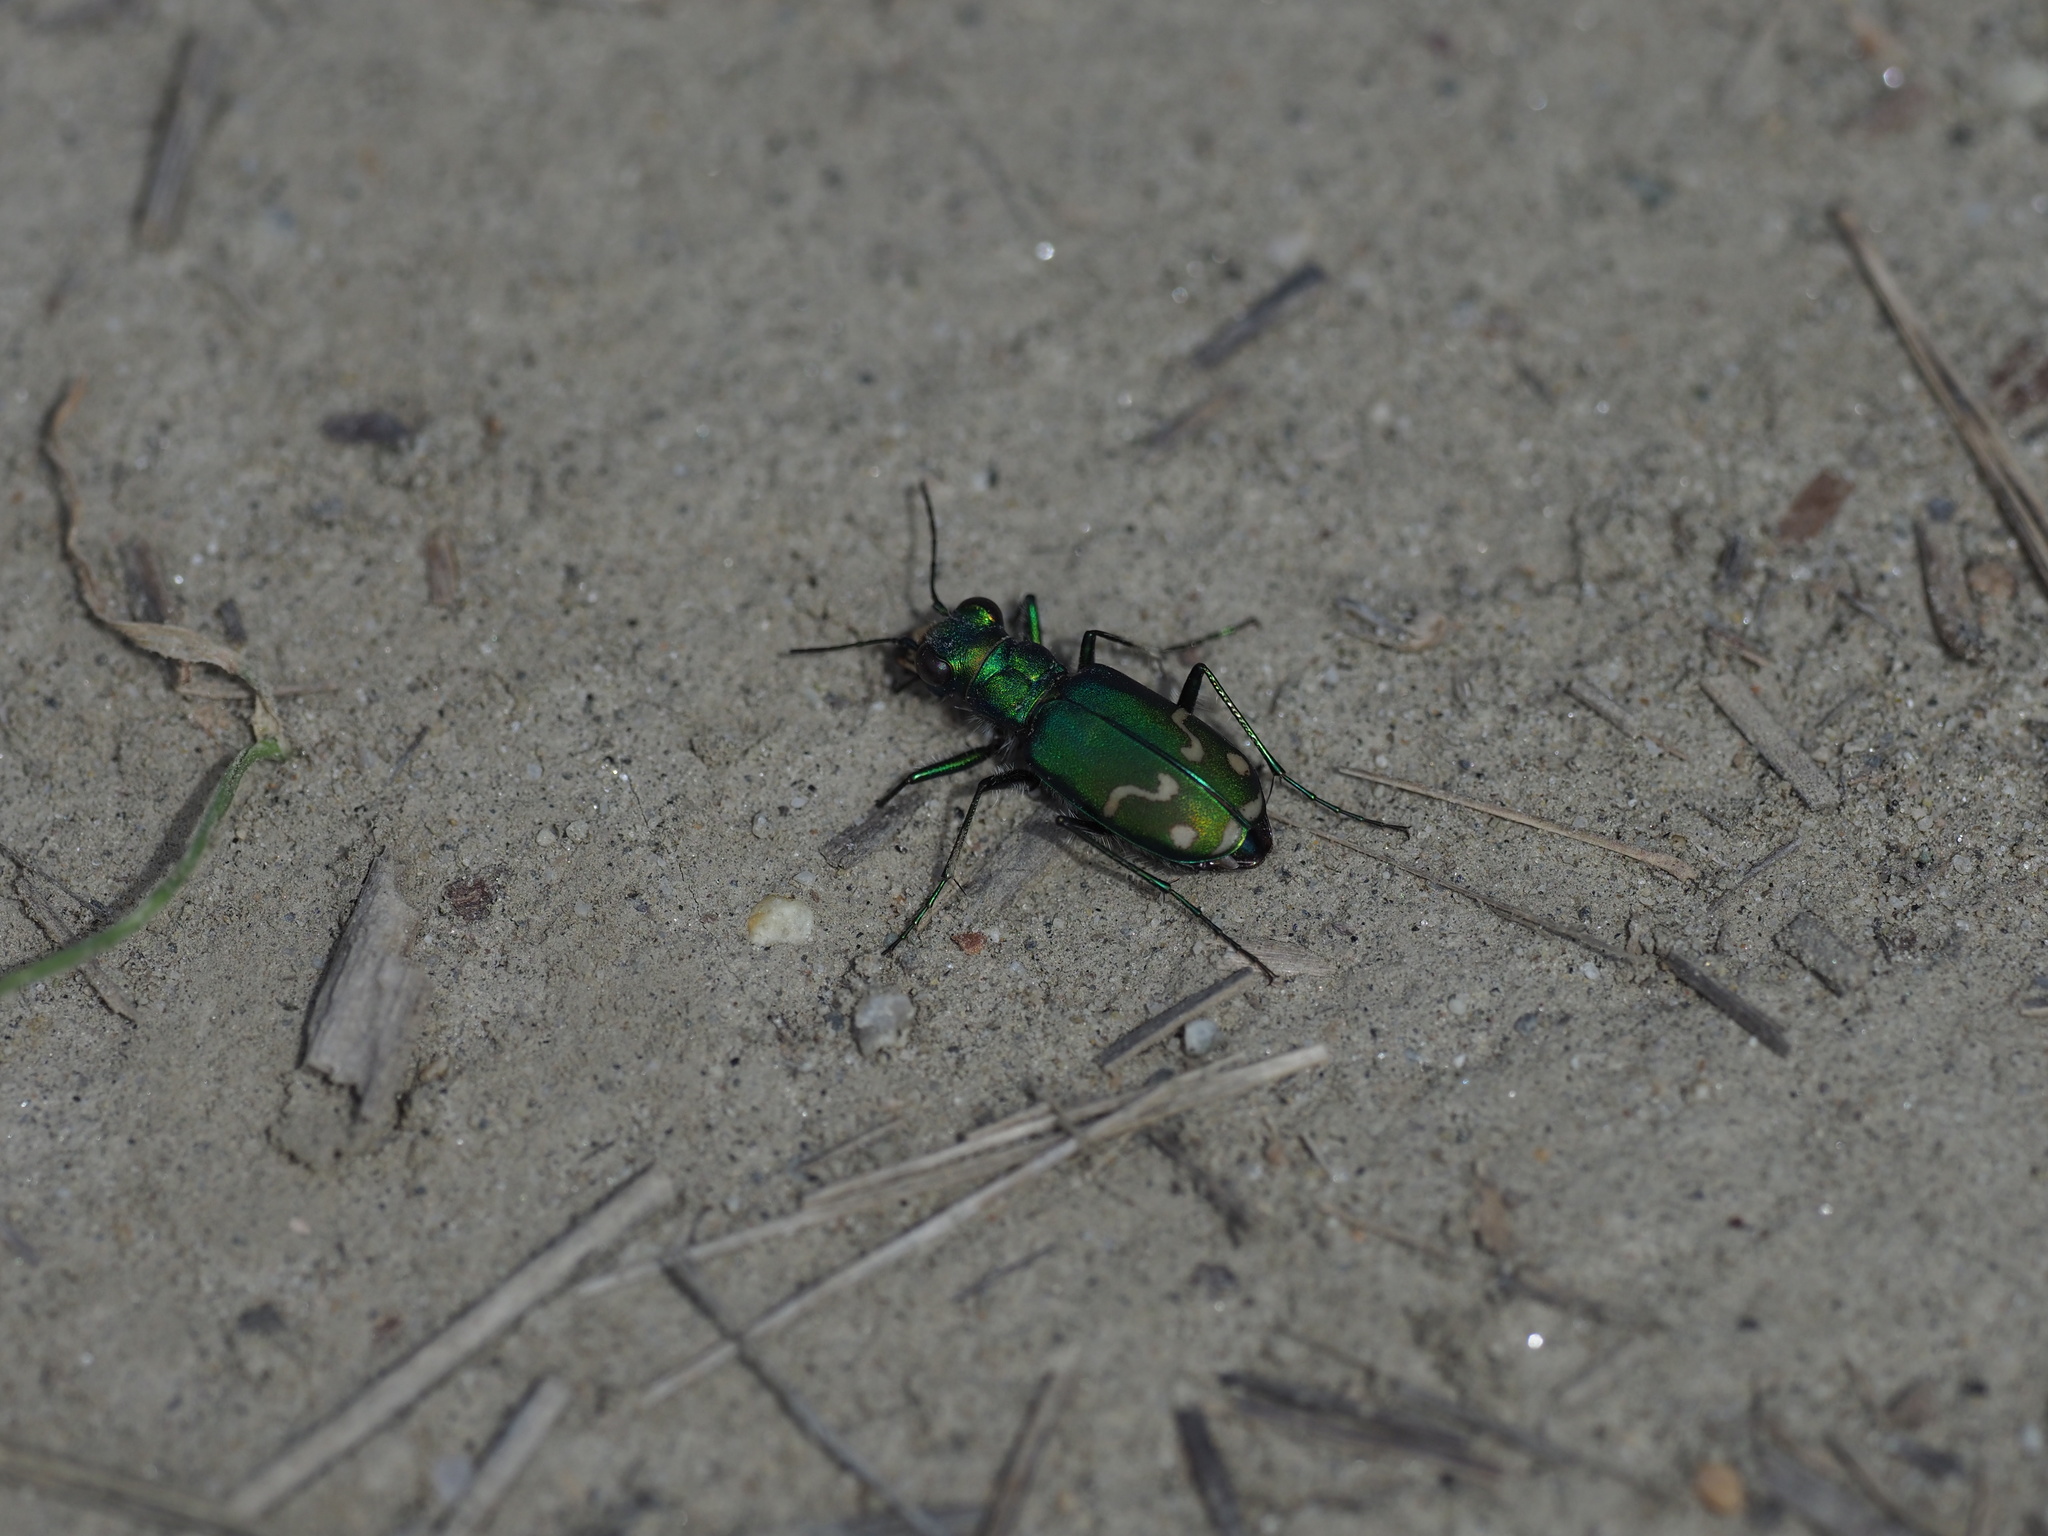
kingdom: Animalia
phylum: Arthropoda
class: Insecta
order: Coleoptera
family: Carabidae
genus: Cicindela
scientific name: Cicindela decemnotata
